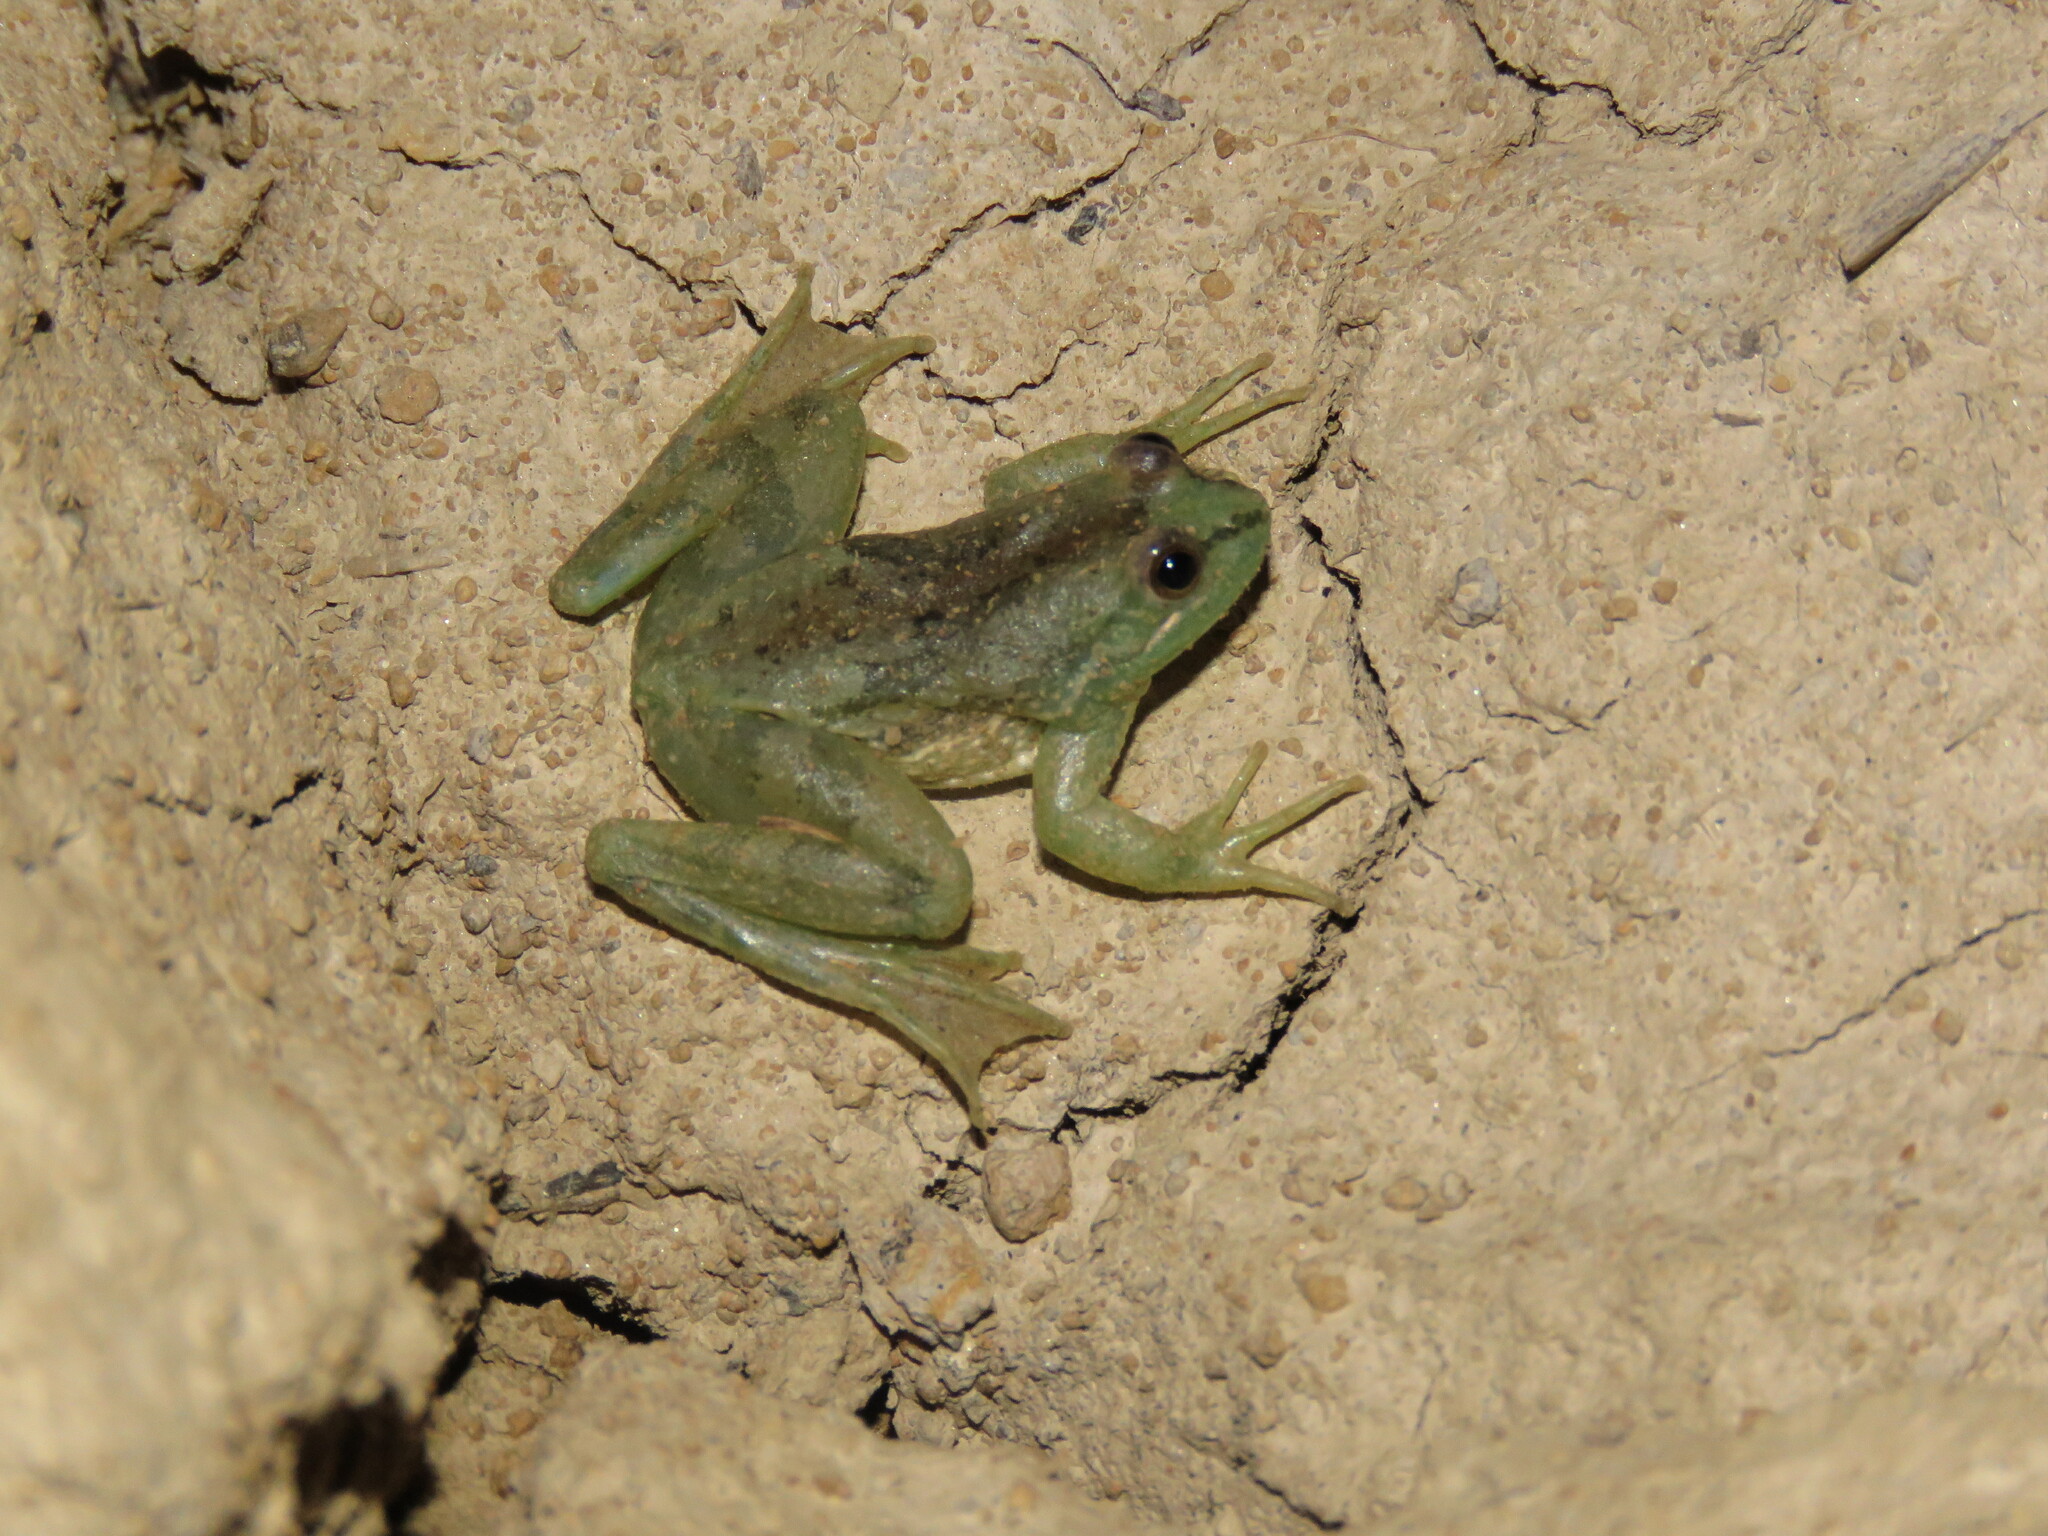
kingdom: Animalia
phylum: Chordata
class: Amphibia
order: Anura
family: Hylidae
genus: Lysapsus
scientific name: Lysapsus limellum
